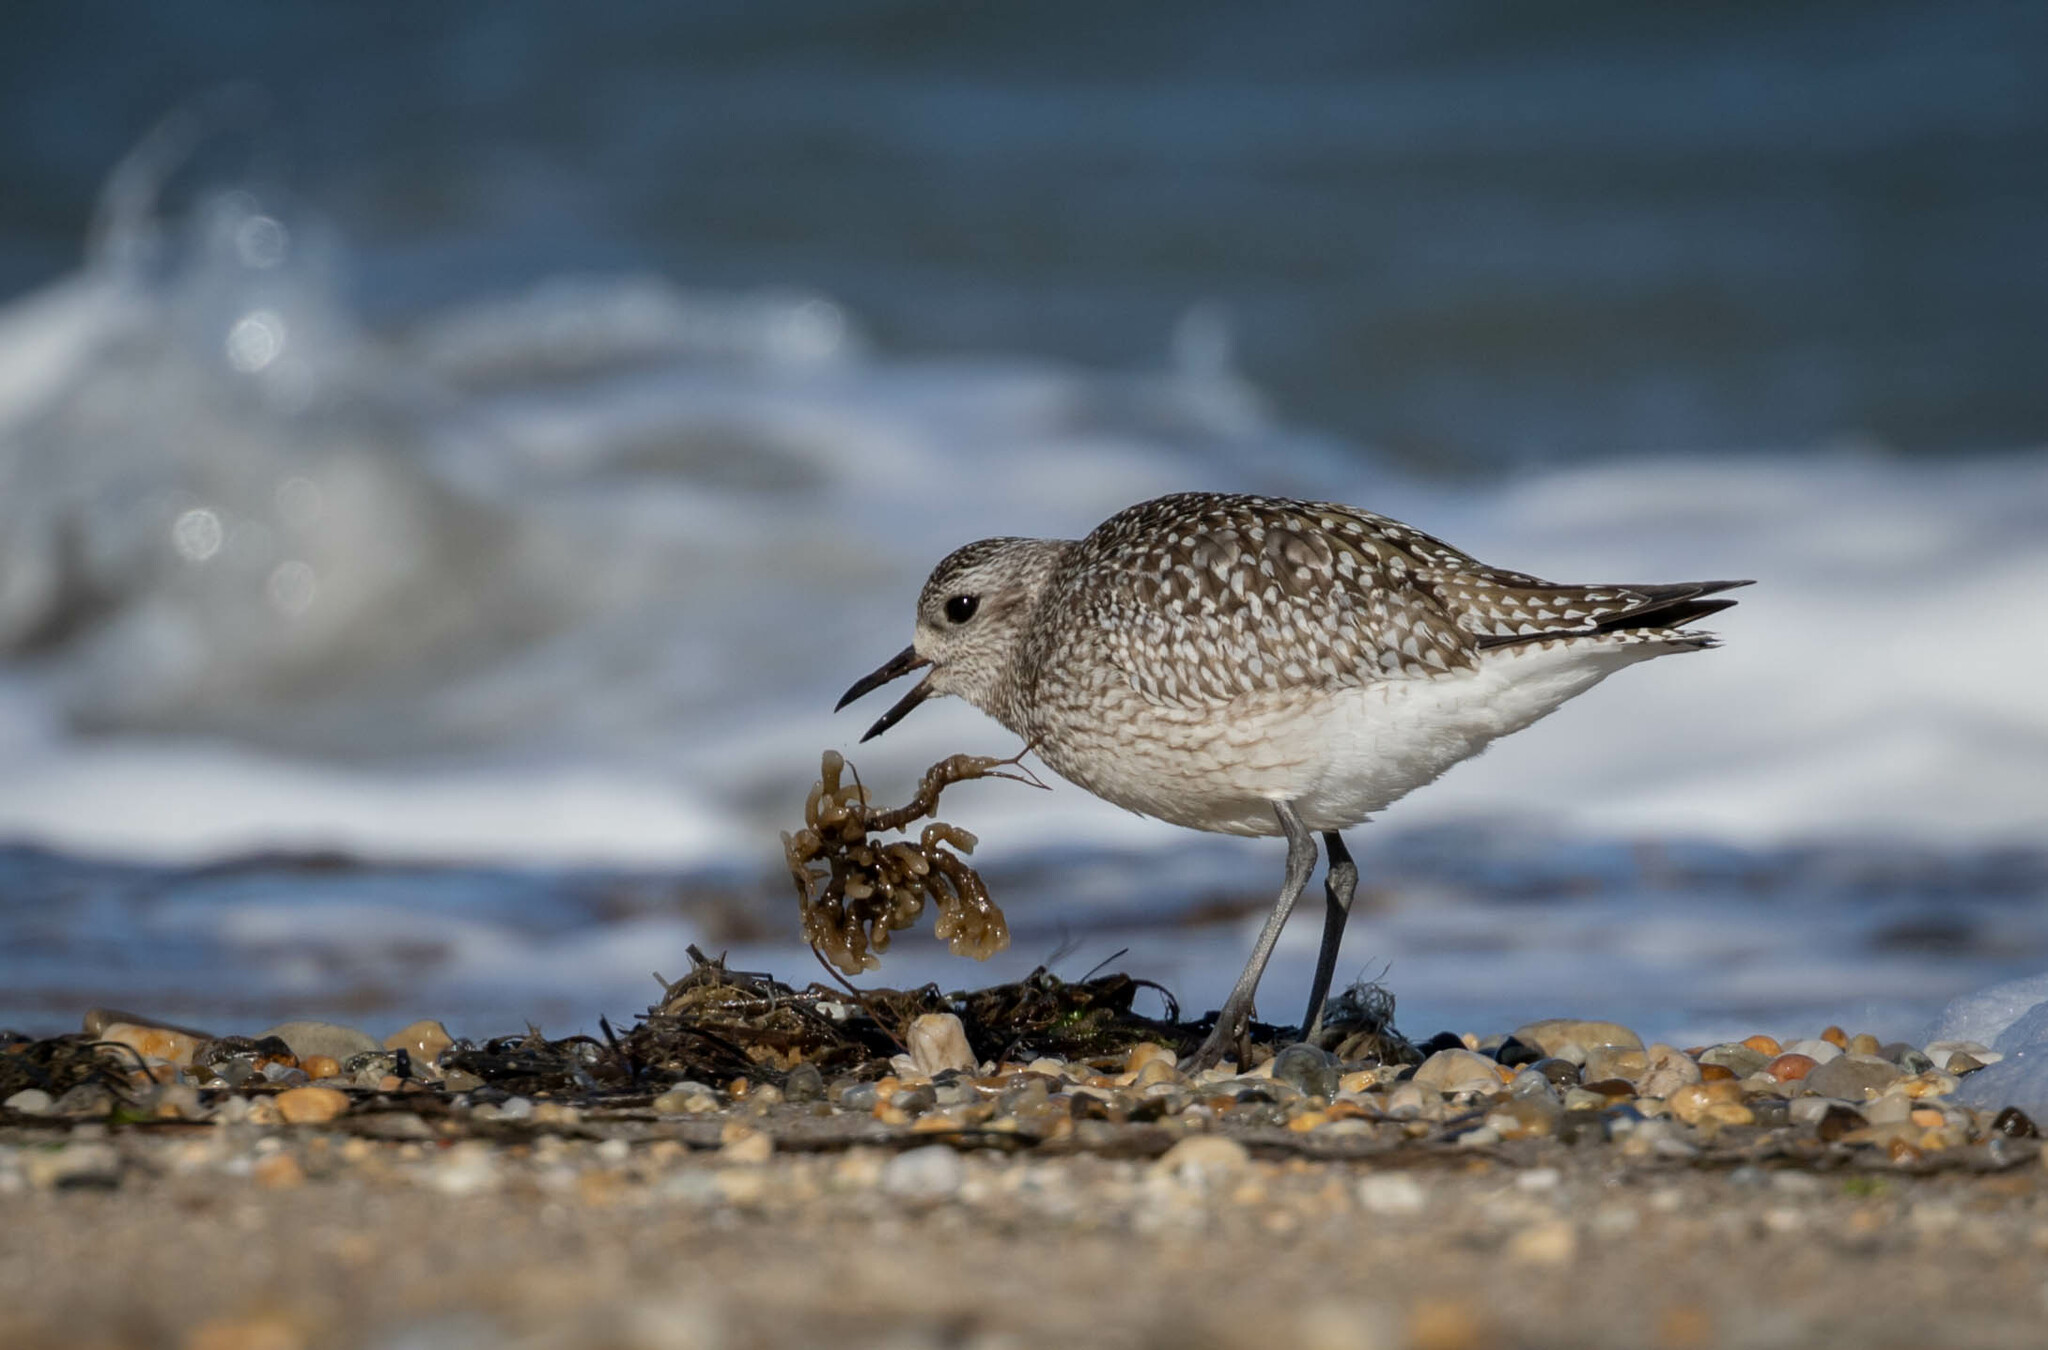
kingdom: Animalia
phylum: Chordata
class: Aves
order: Charadriiformes
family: Charadriidae
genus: Pluvialis
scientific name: Pluvialis squatarola
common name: Grey plover
